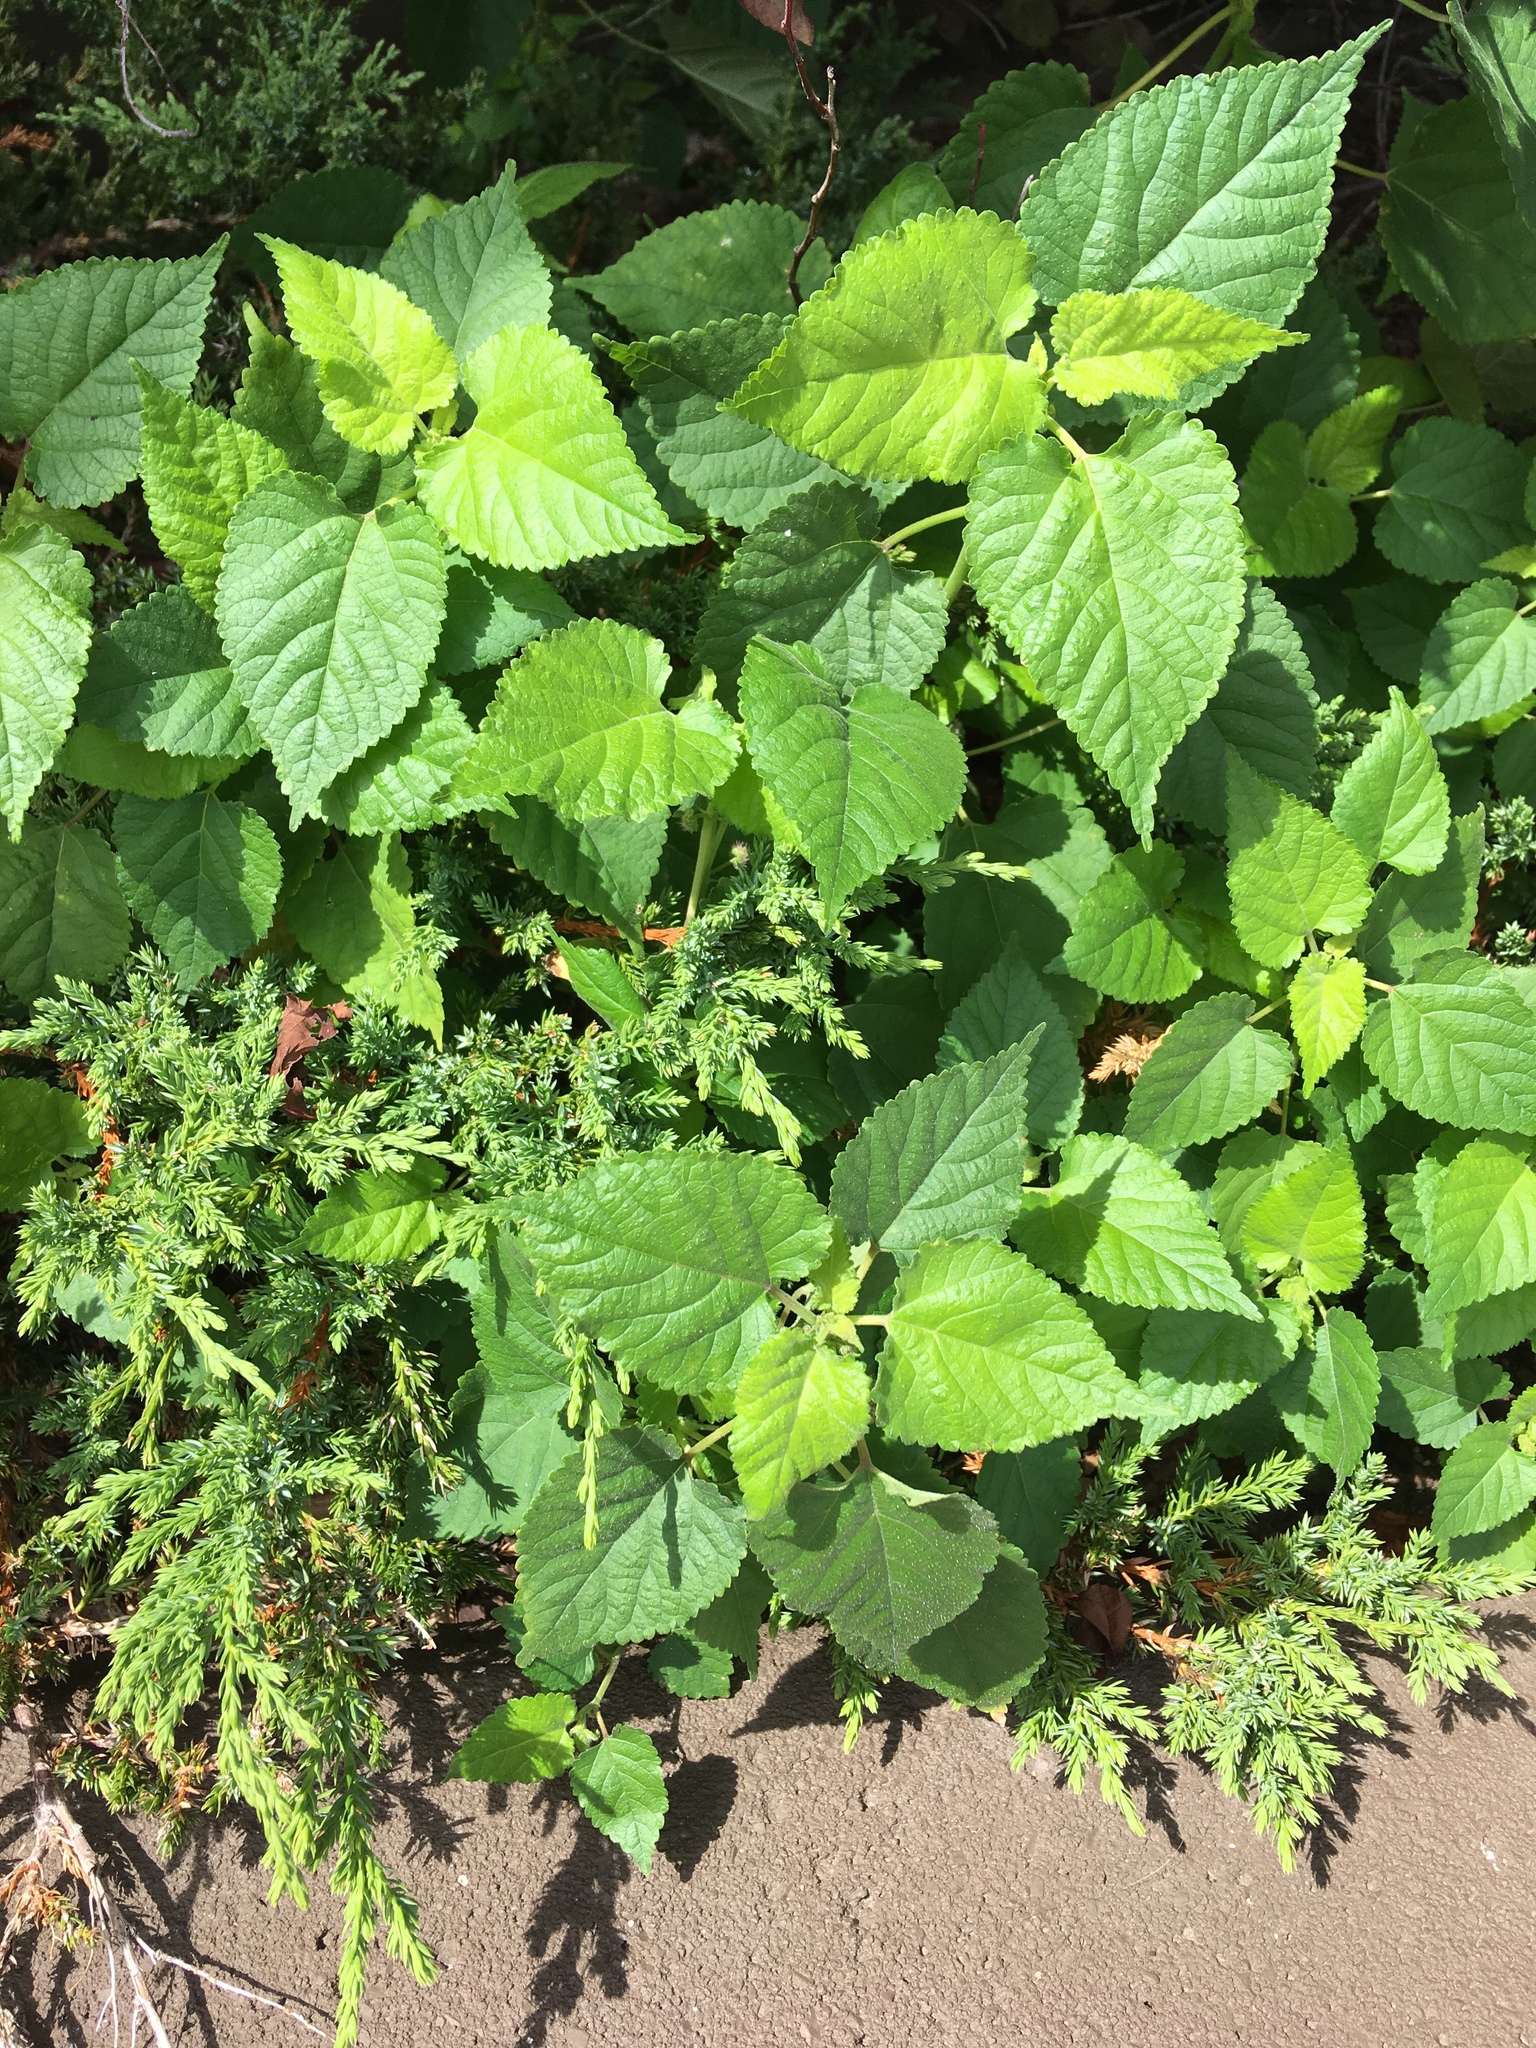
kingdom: Plantae
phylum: Tracheophyta
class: Magnoliopsida
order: Rosales
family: Moraceae
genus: Fatoua
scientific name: Fatoua villosa
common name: Hairy crabweed
